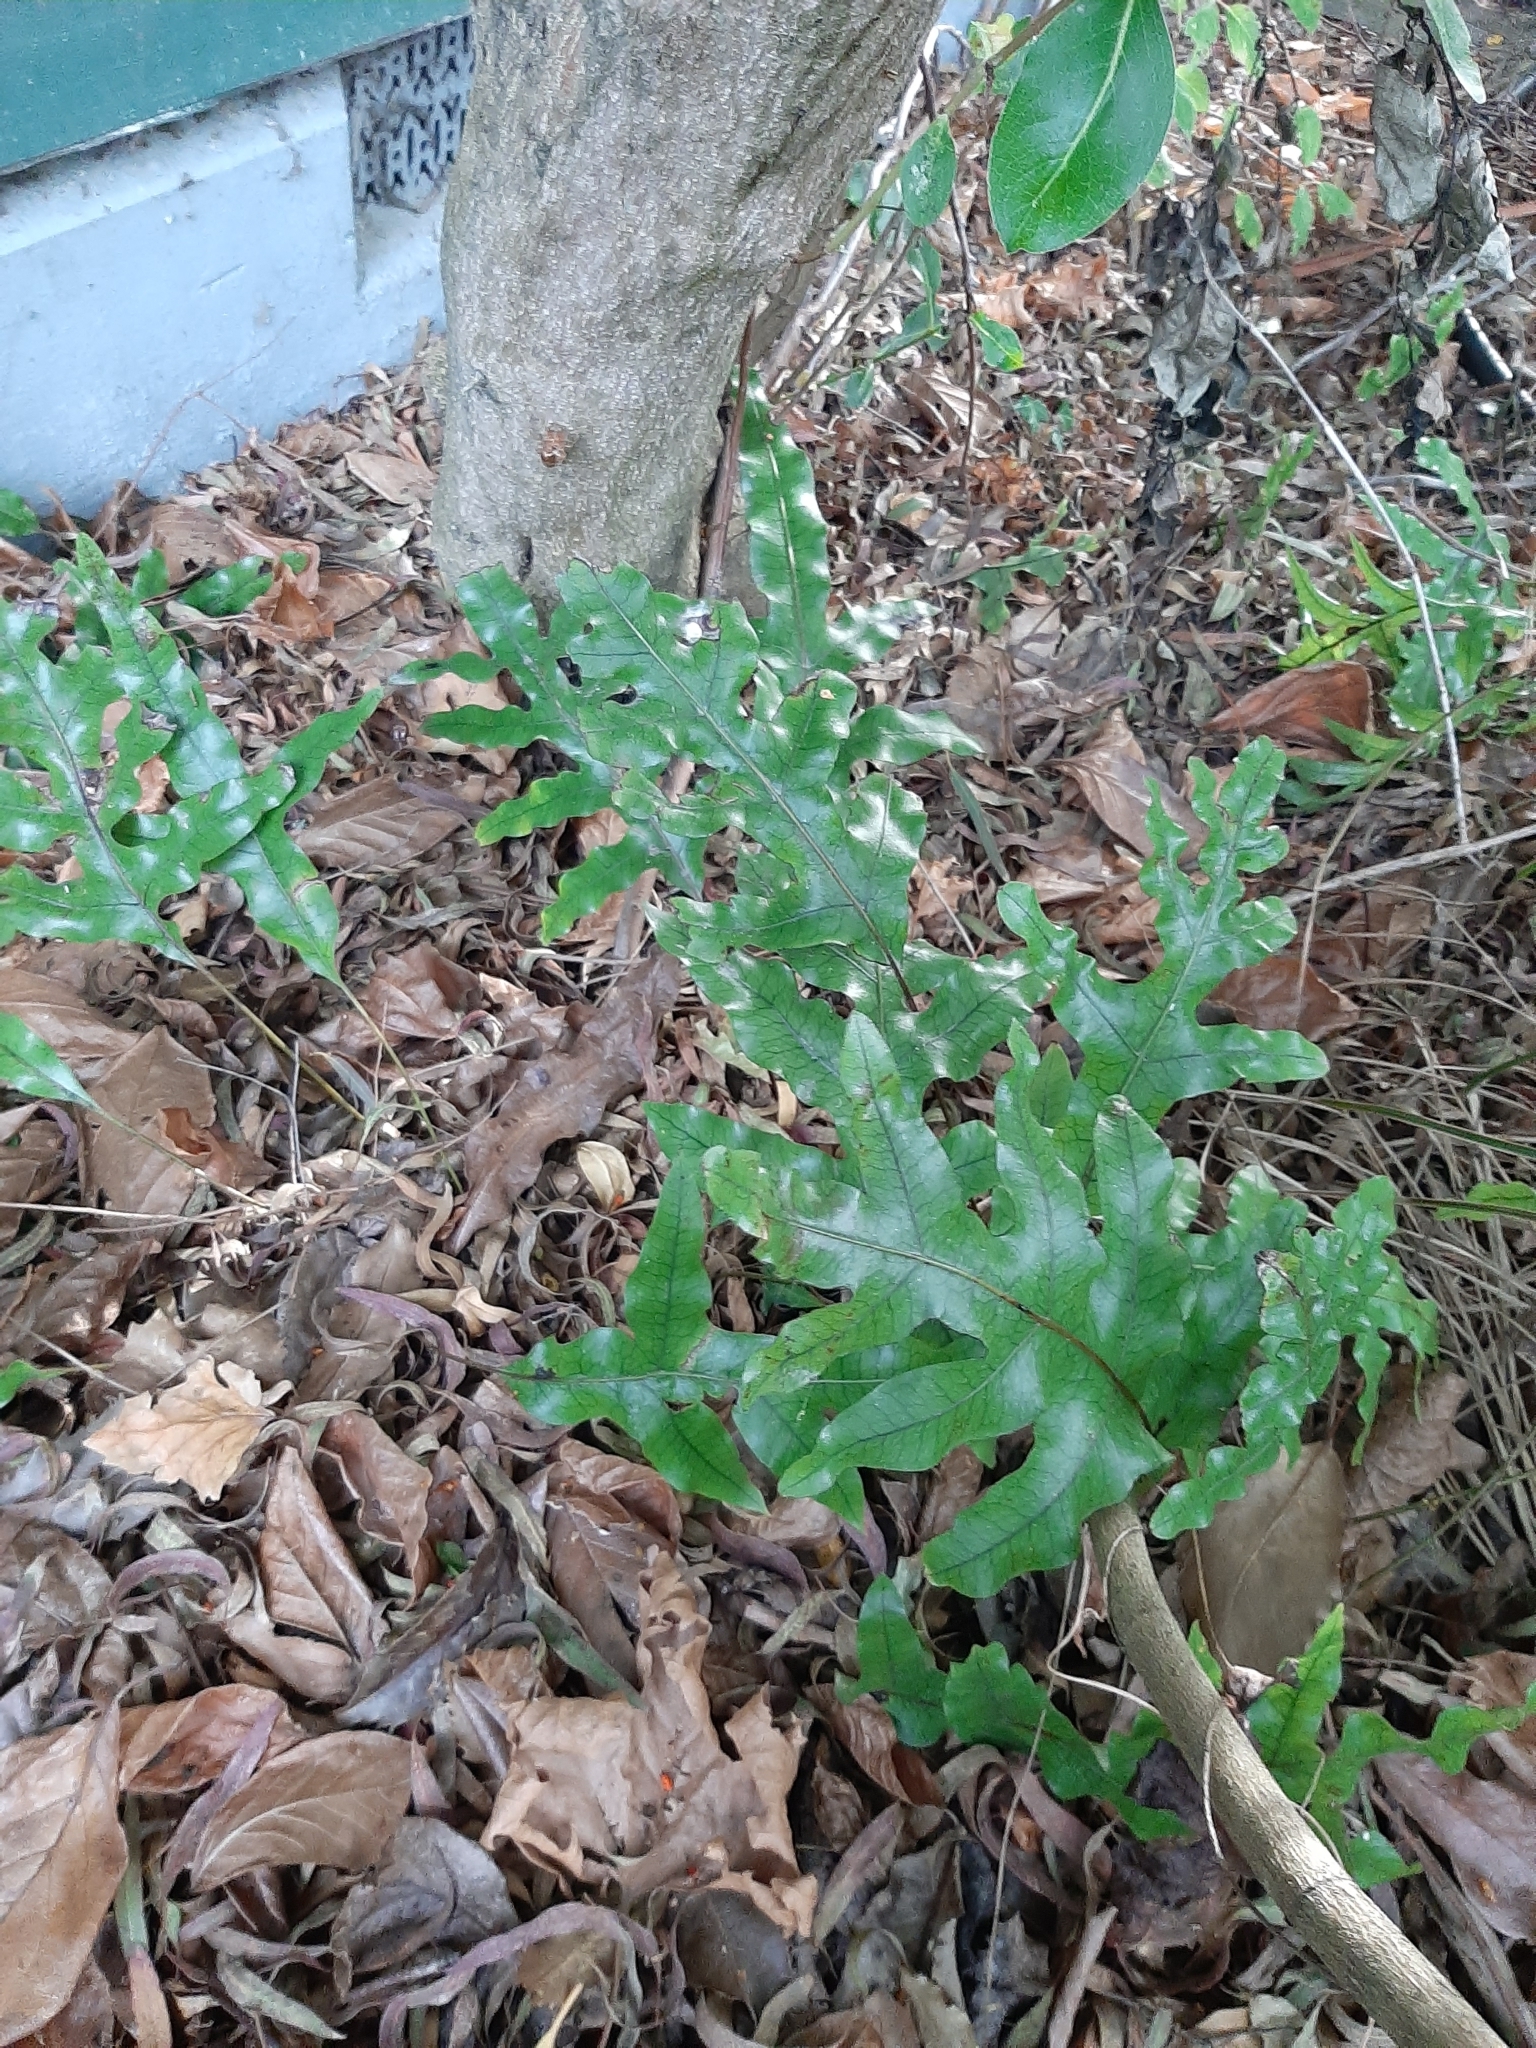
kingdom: Plantae
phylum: Tracheophyta
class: Polypodiopsida
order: Polypodiales
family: Polypodiaceae
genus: Lecanopteris
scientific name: Lecanopteris pustulata
